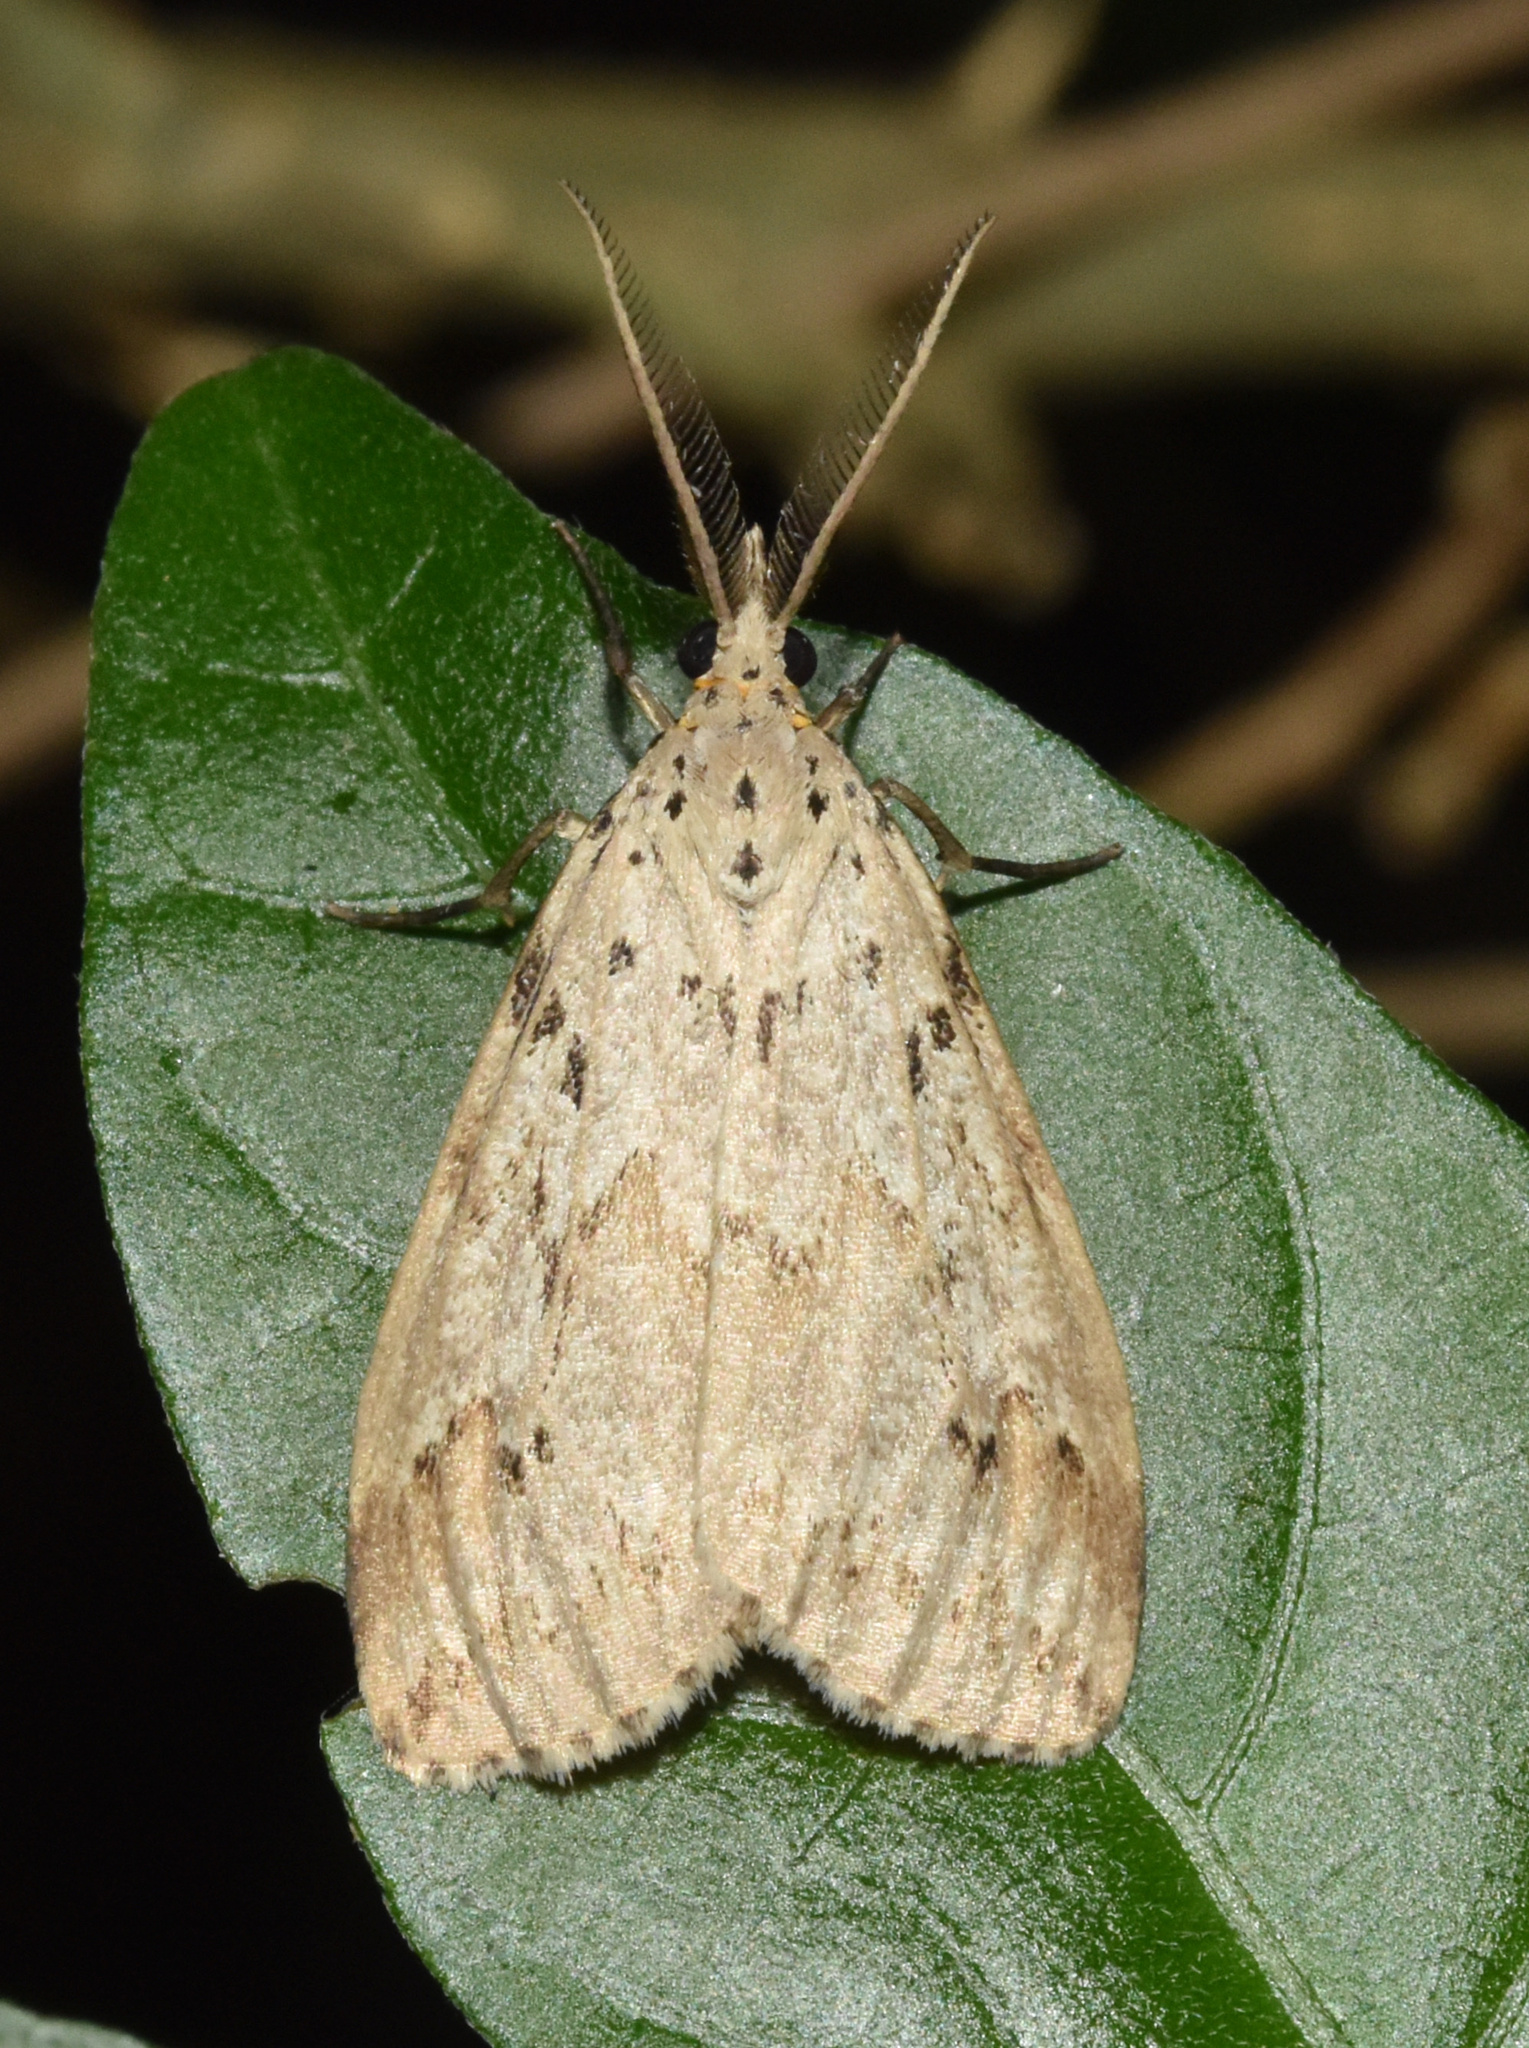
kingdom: Animalia
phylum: Arthropoda
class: Insecta
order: Lepidoptera
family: Erebidae
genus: Galtara
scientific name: Galtara rostrata
